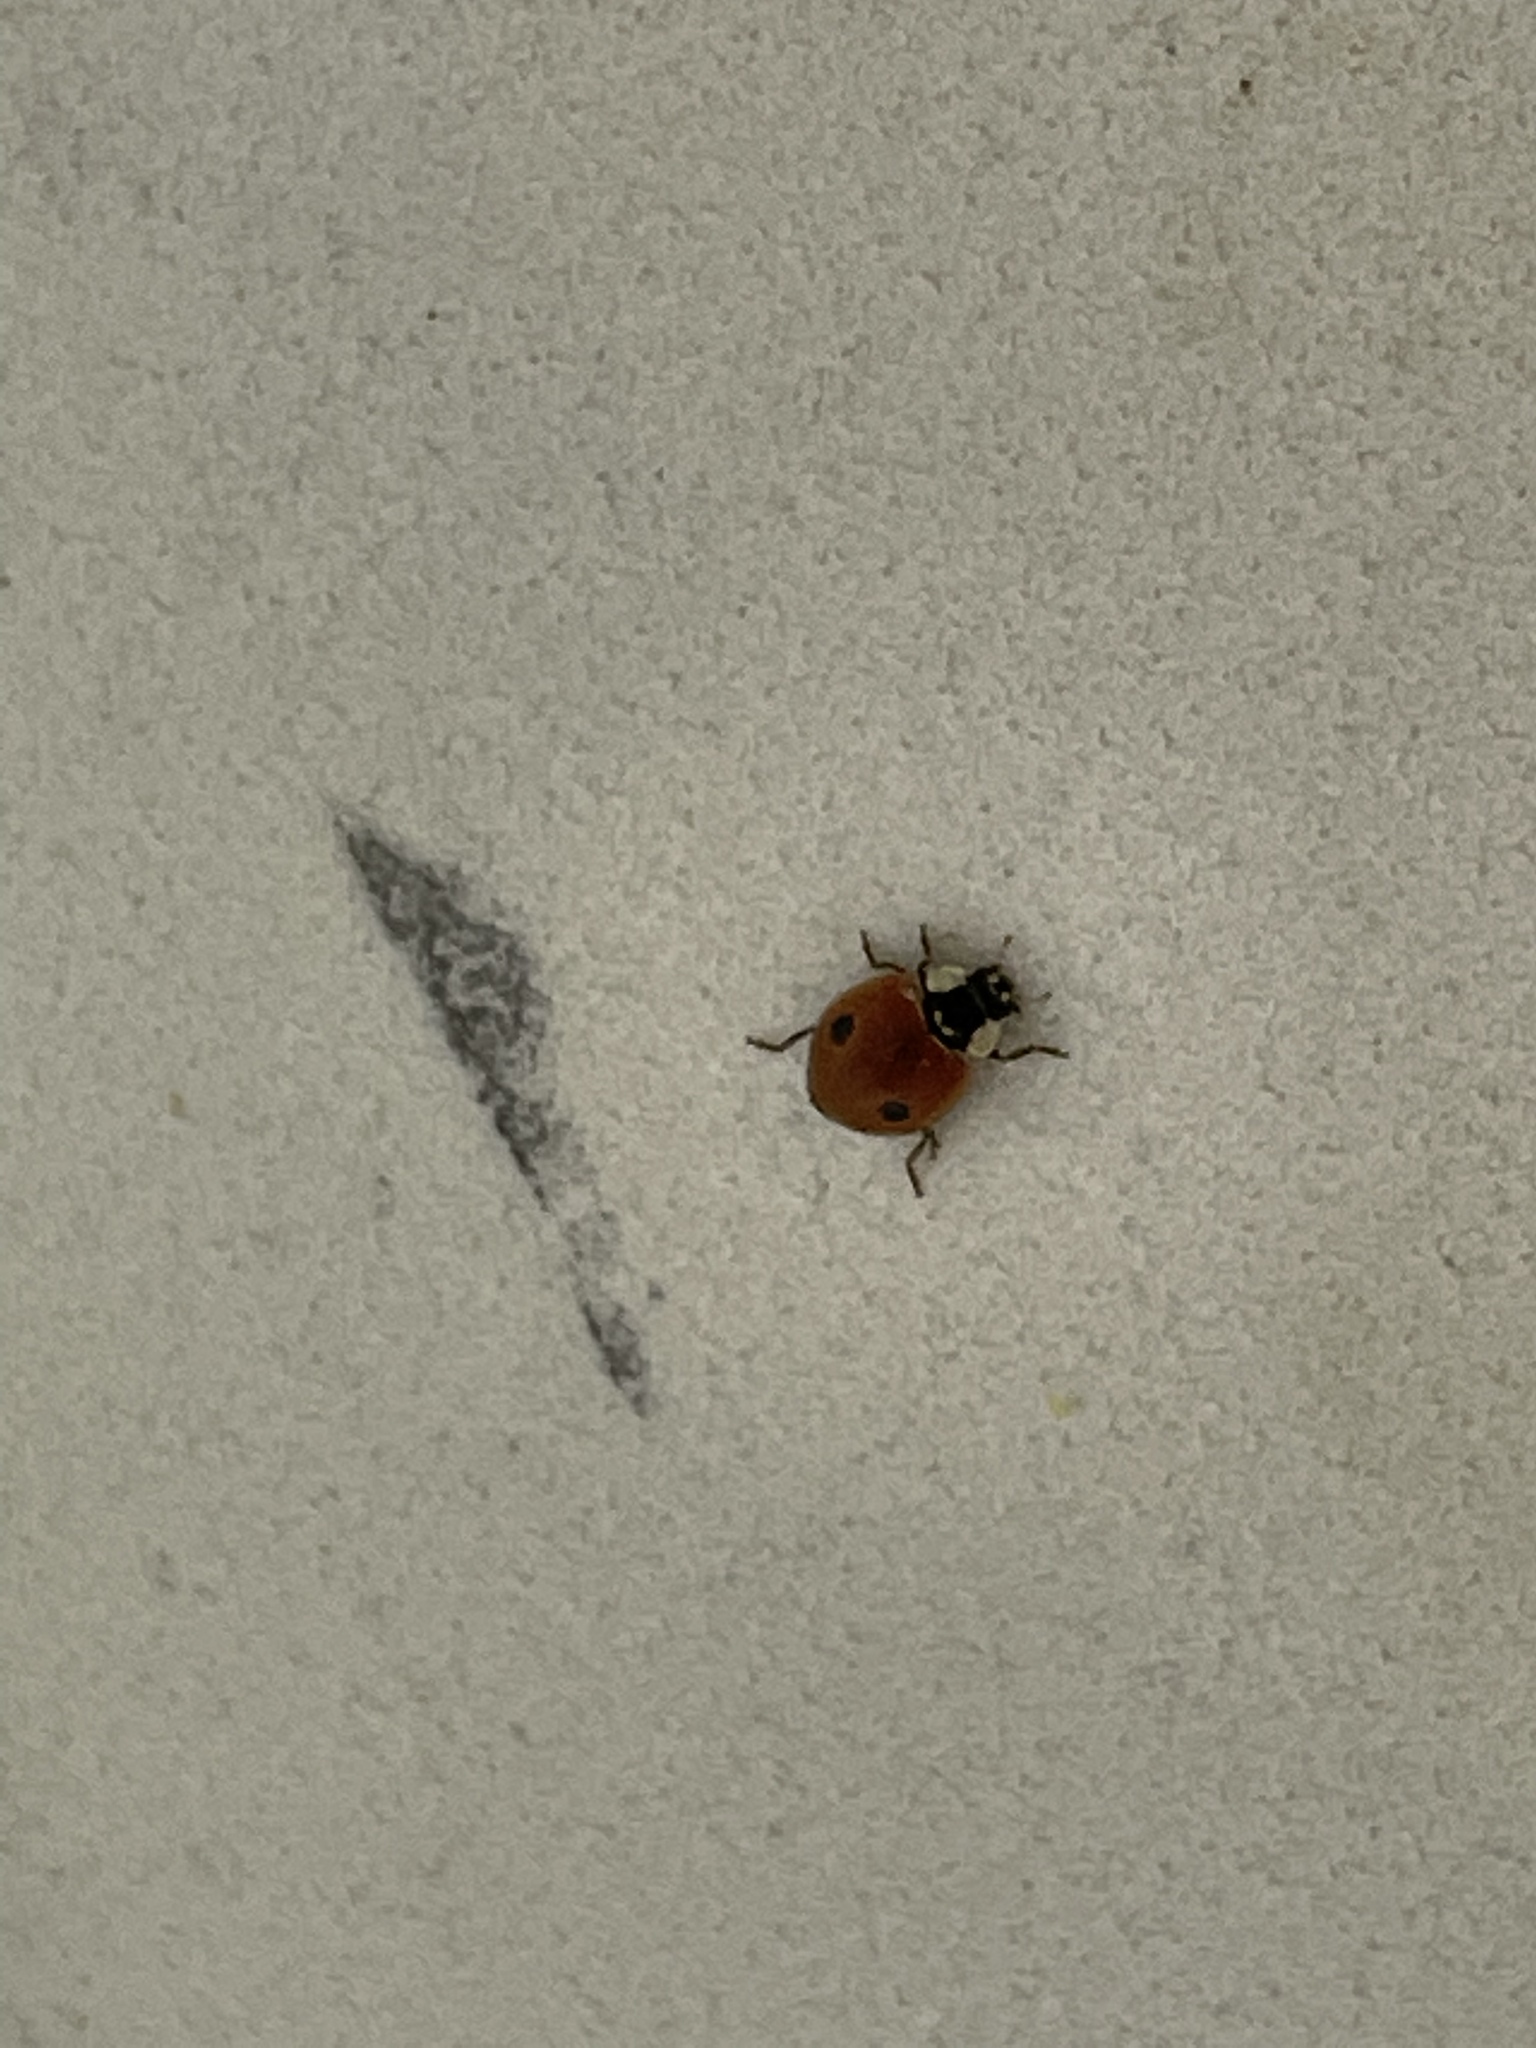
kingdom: Animalia
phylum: Arthropoda
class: Insecta
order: Coleoptera
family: Coccinellidae
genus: Adalia
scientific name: Adalia bipunctata
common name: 2-spot ladybird
